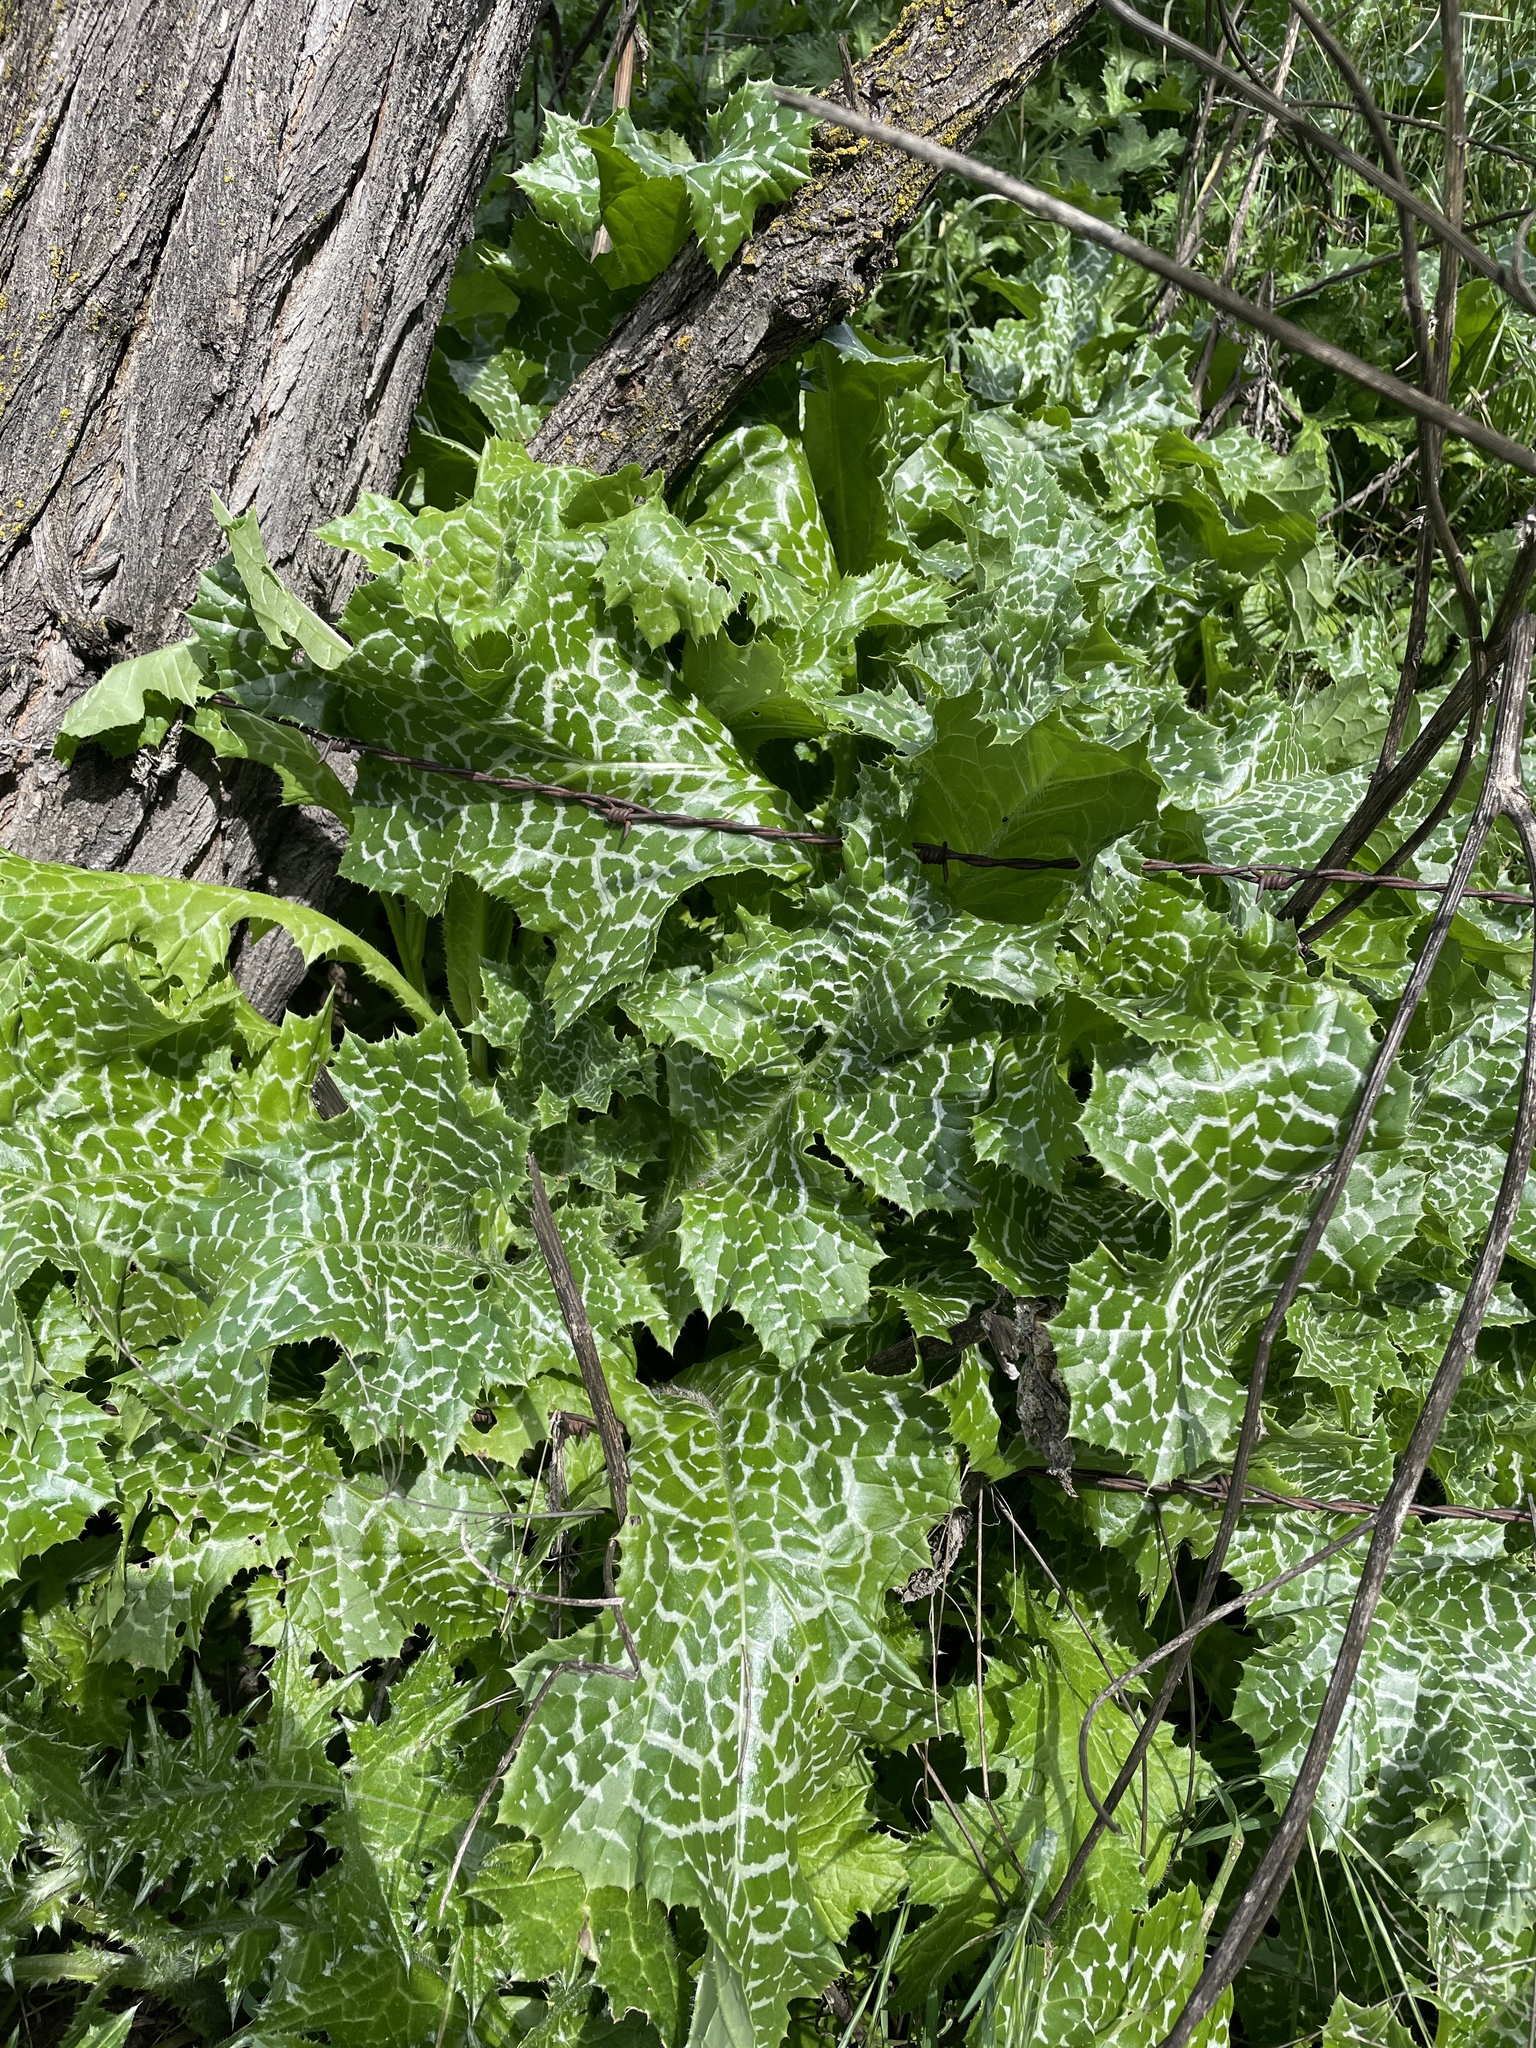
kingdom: Plantae
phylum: Tracheophyta
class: Magnoliopsida
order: Asterales
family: Asteraceae
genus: Silybum
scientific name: Silybum marianum
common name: Milk thistle
